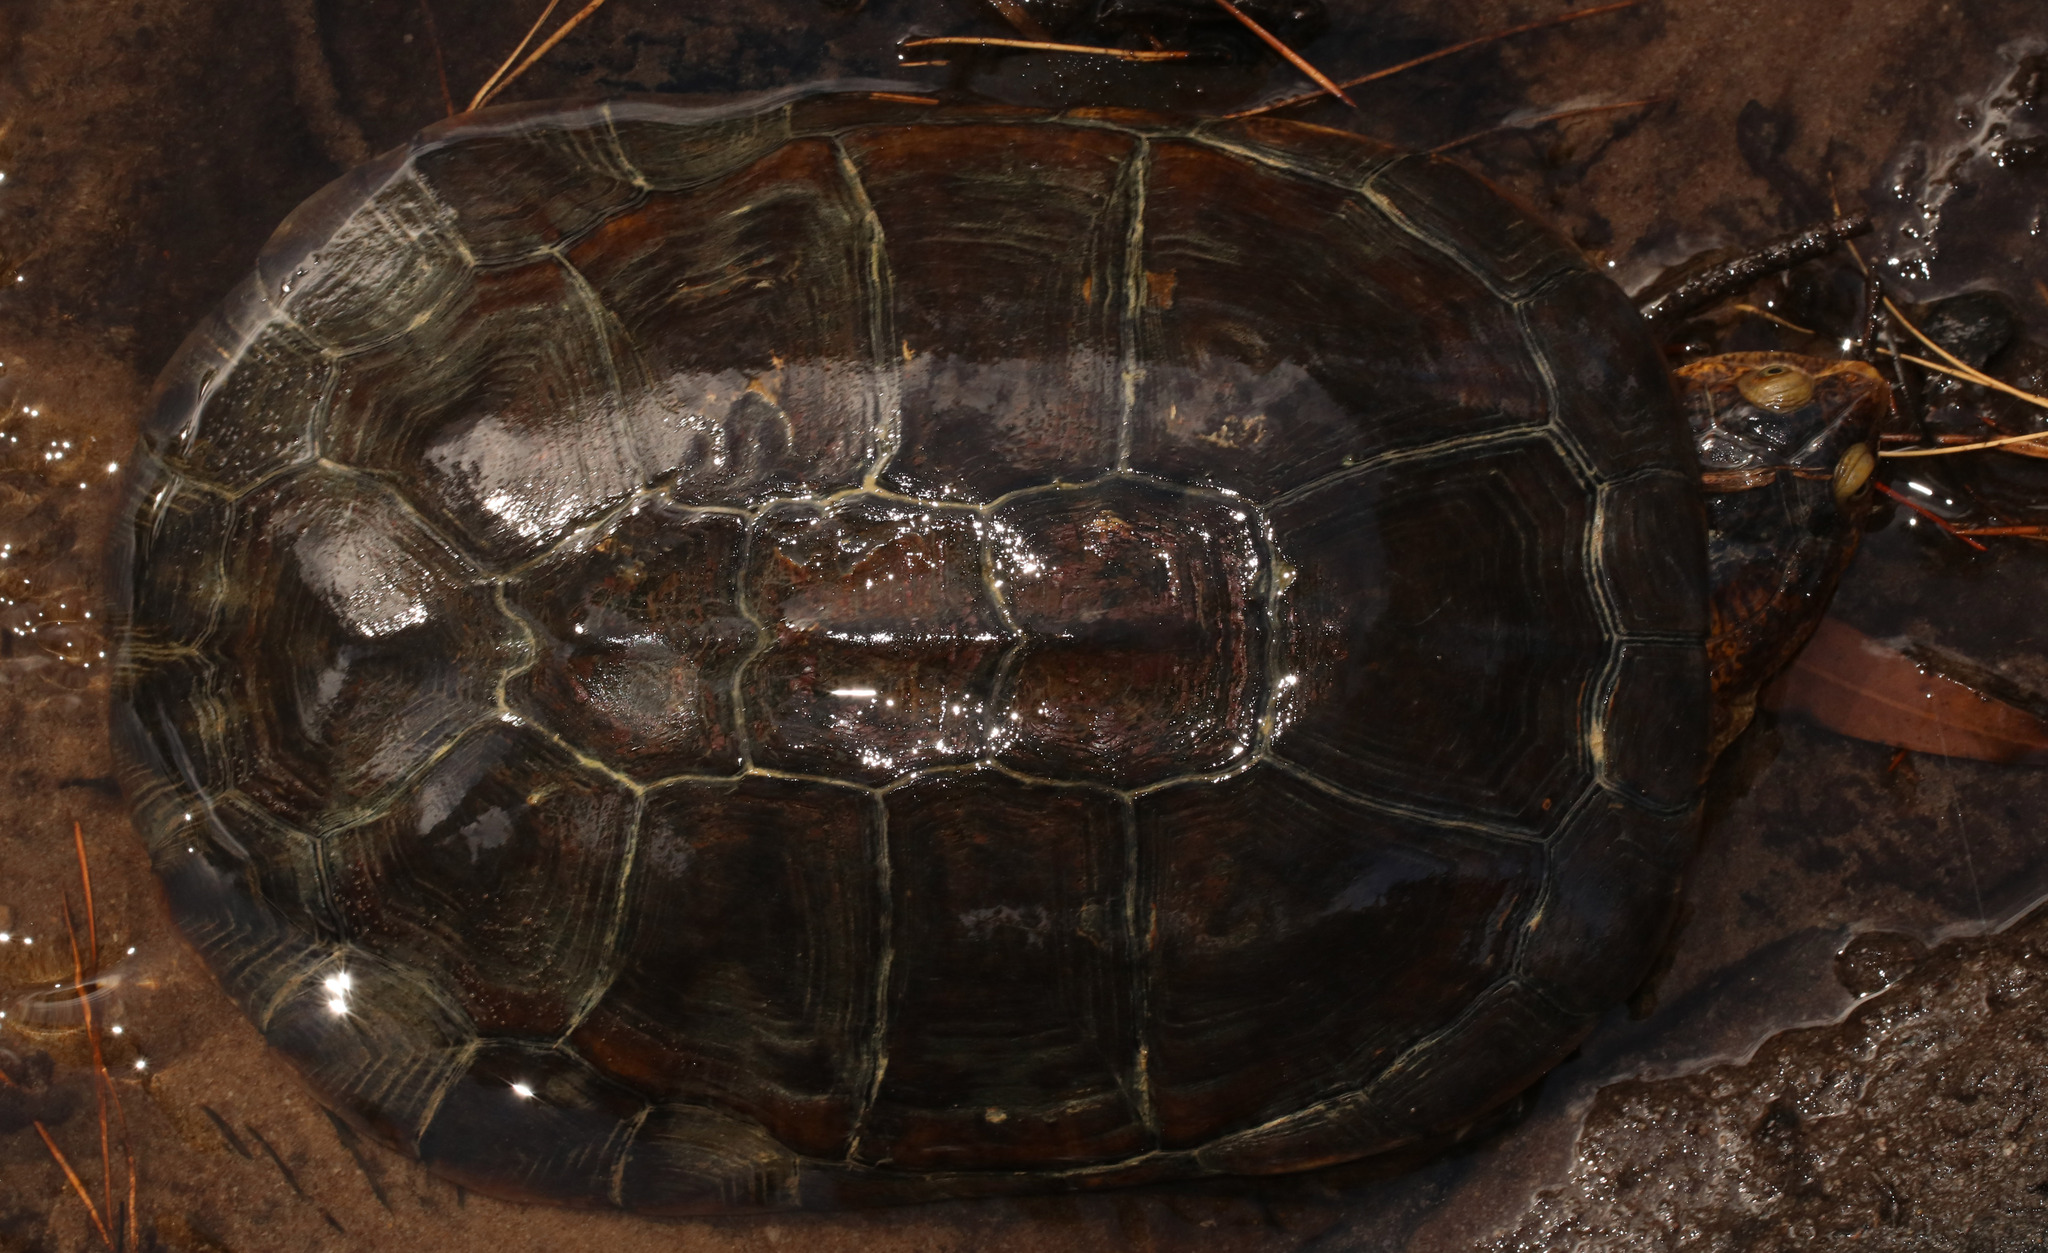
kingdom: Animalia
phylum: Chordata
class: Testudines
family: Pelomedusidae
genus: Pelomedusa
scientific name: Pelomedusa galeata
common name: South african helmeted terrapin
